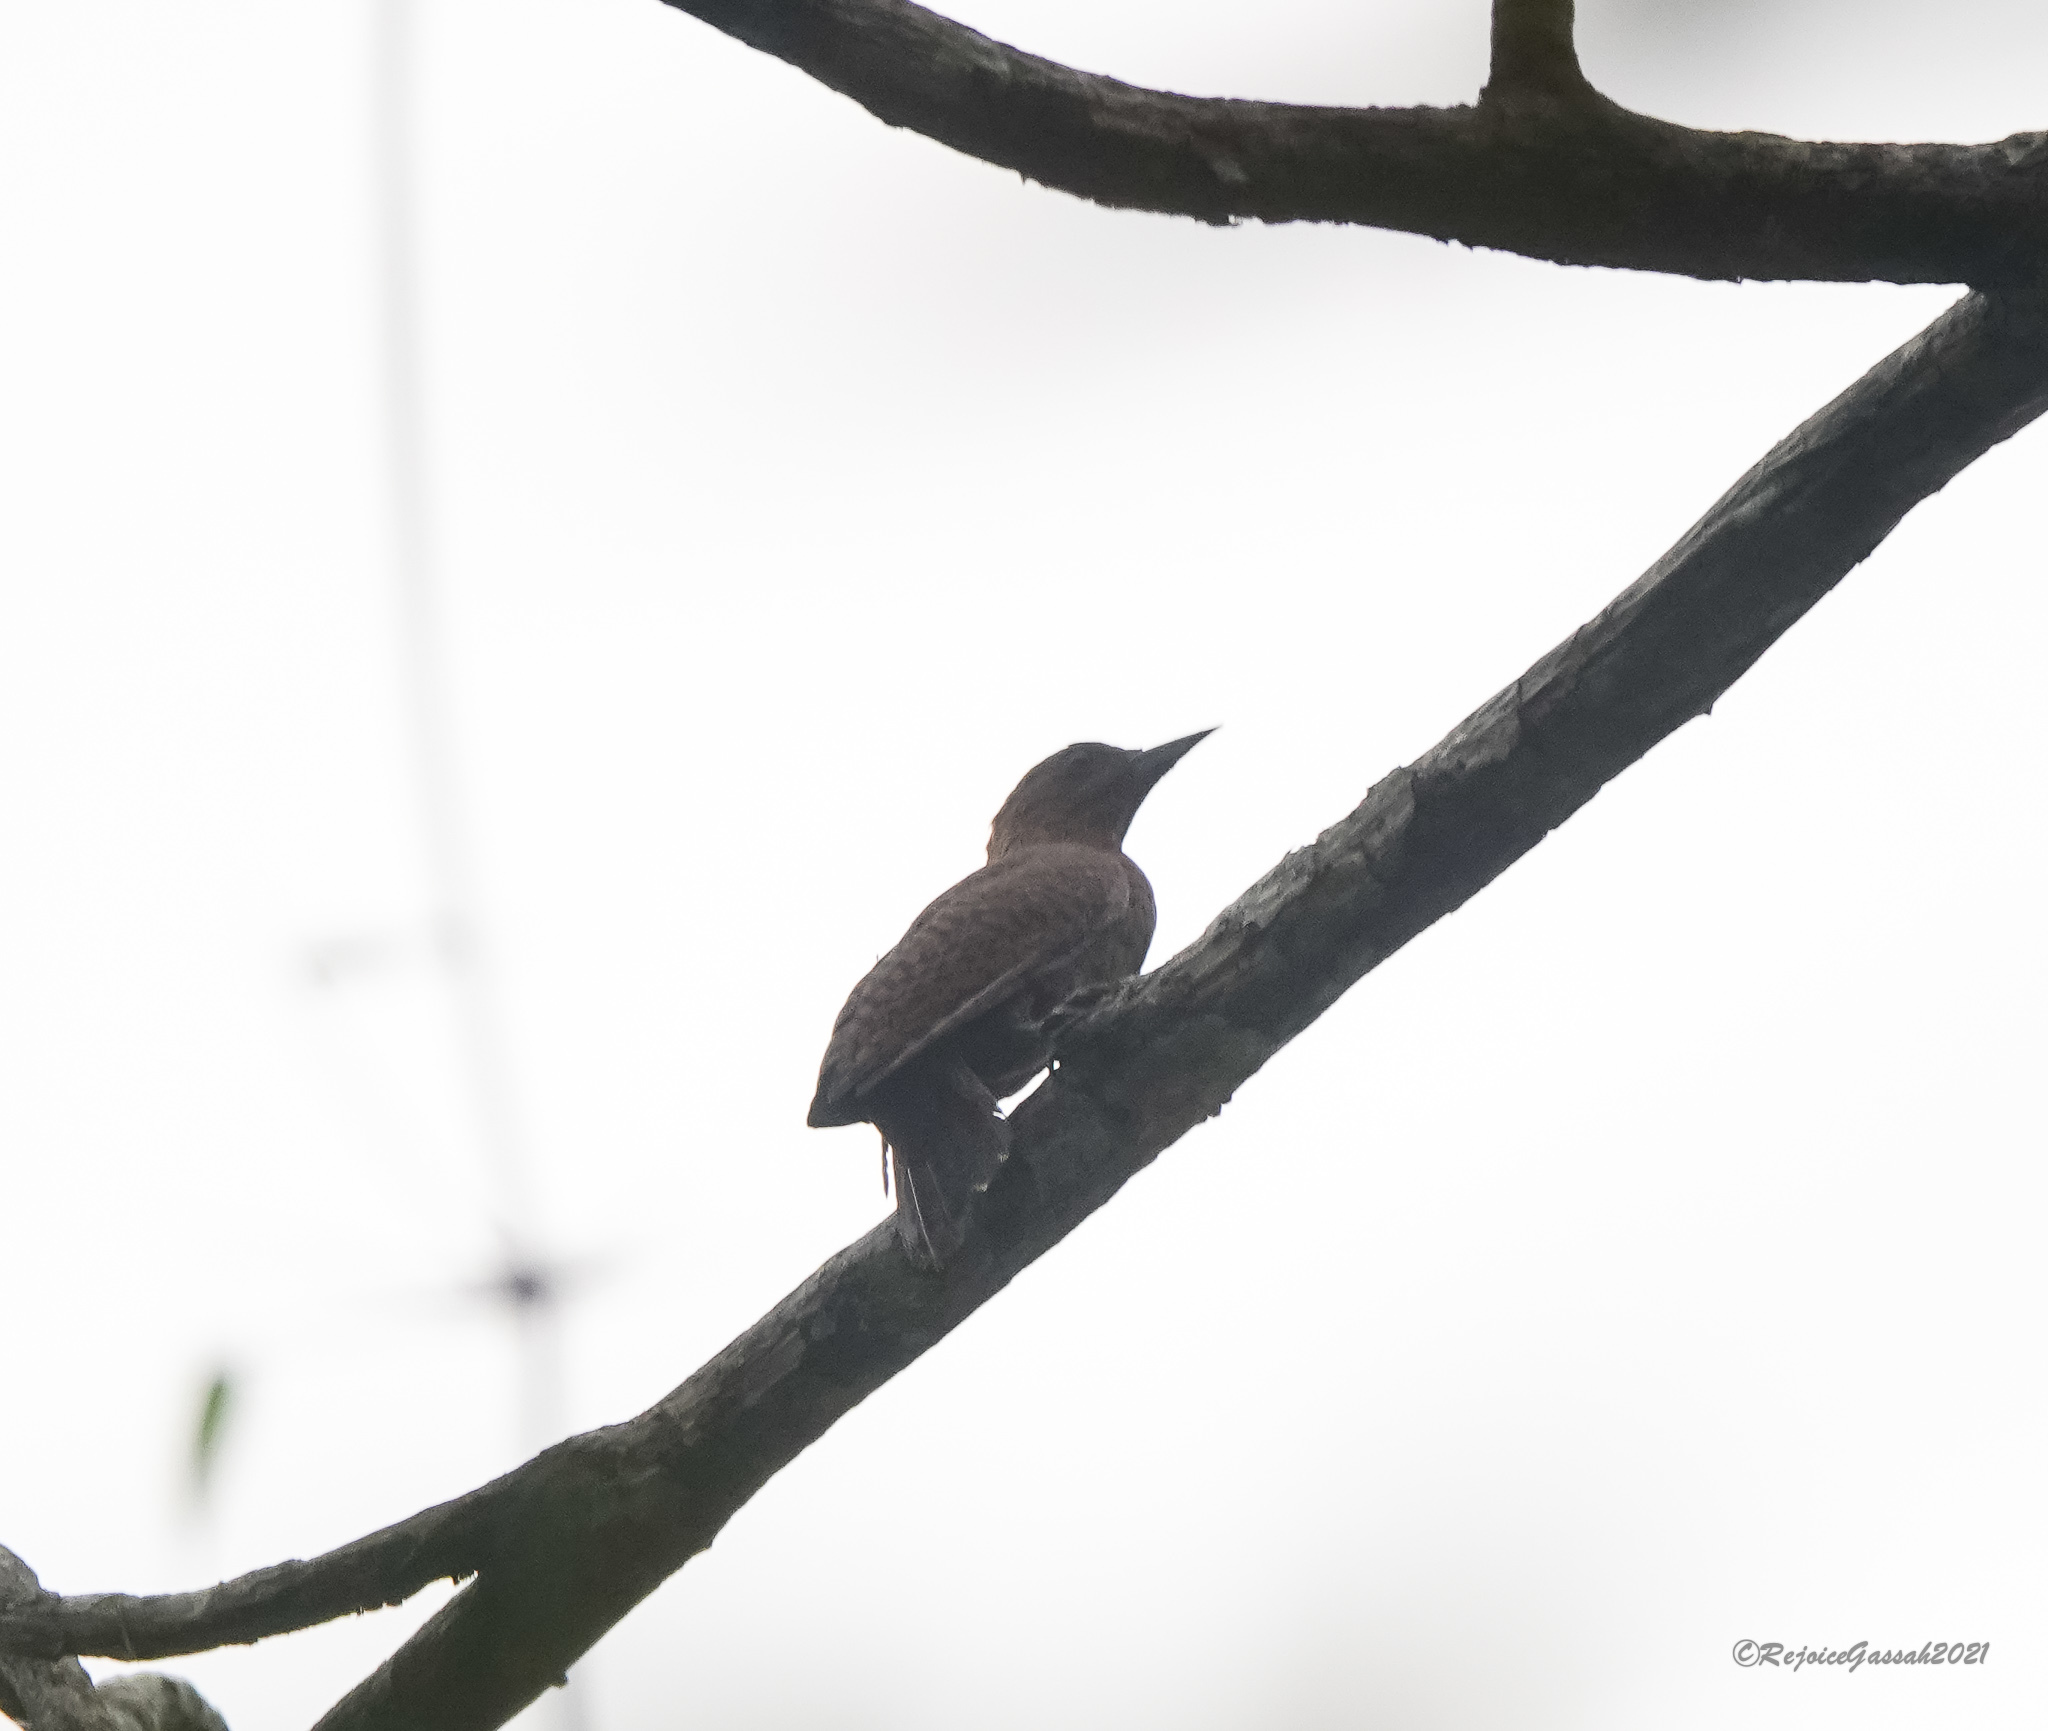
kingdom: Animalia
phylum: Chordata
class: Aves
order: Piciformes
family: Picidae
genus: Micropternus
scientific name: Micropternus brachyurus
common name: Rufous woodpecker
